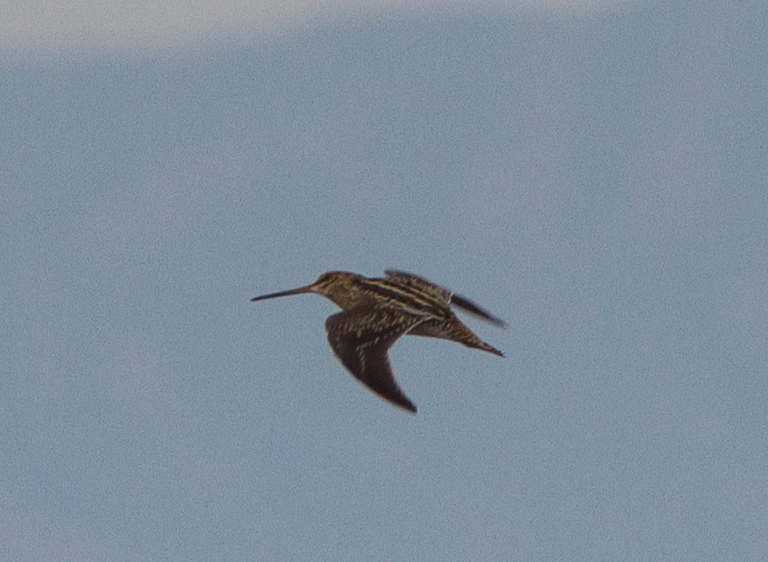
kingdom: Animalia
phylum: Chordata
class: Aves
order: Charadriiformes
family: Scolopacidae
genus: Gallinago
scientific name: Gallinago delicata
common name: Wilson's snipe
